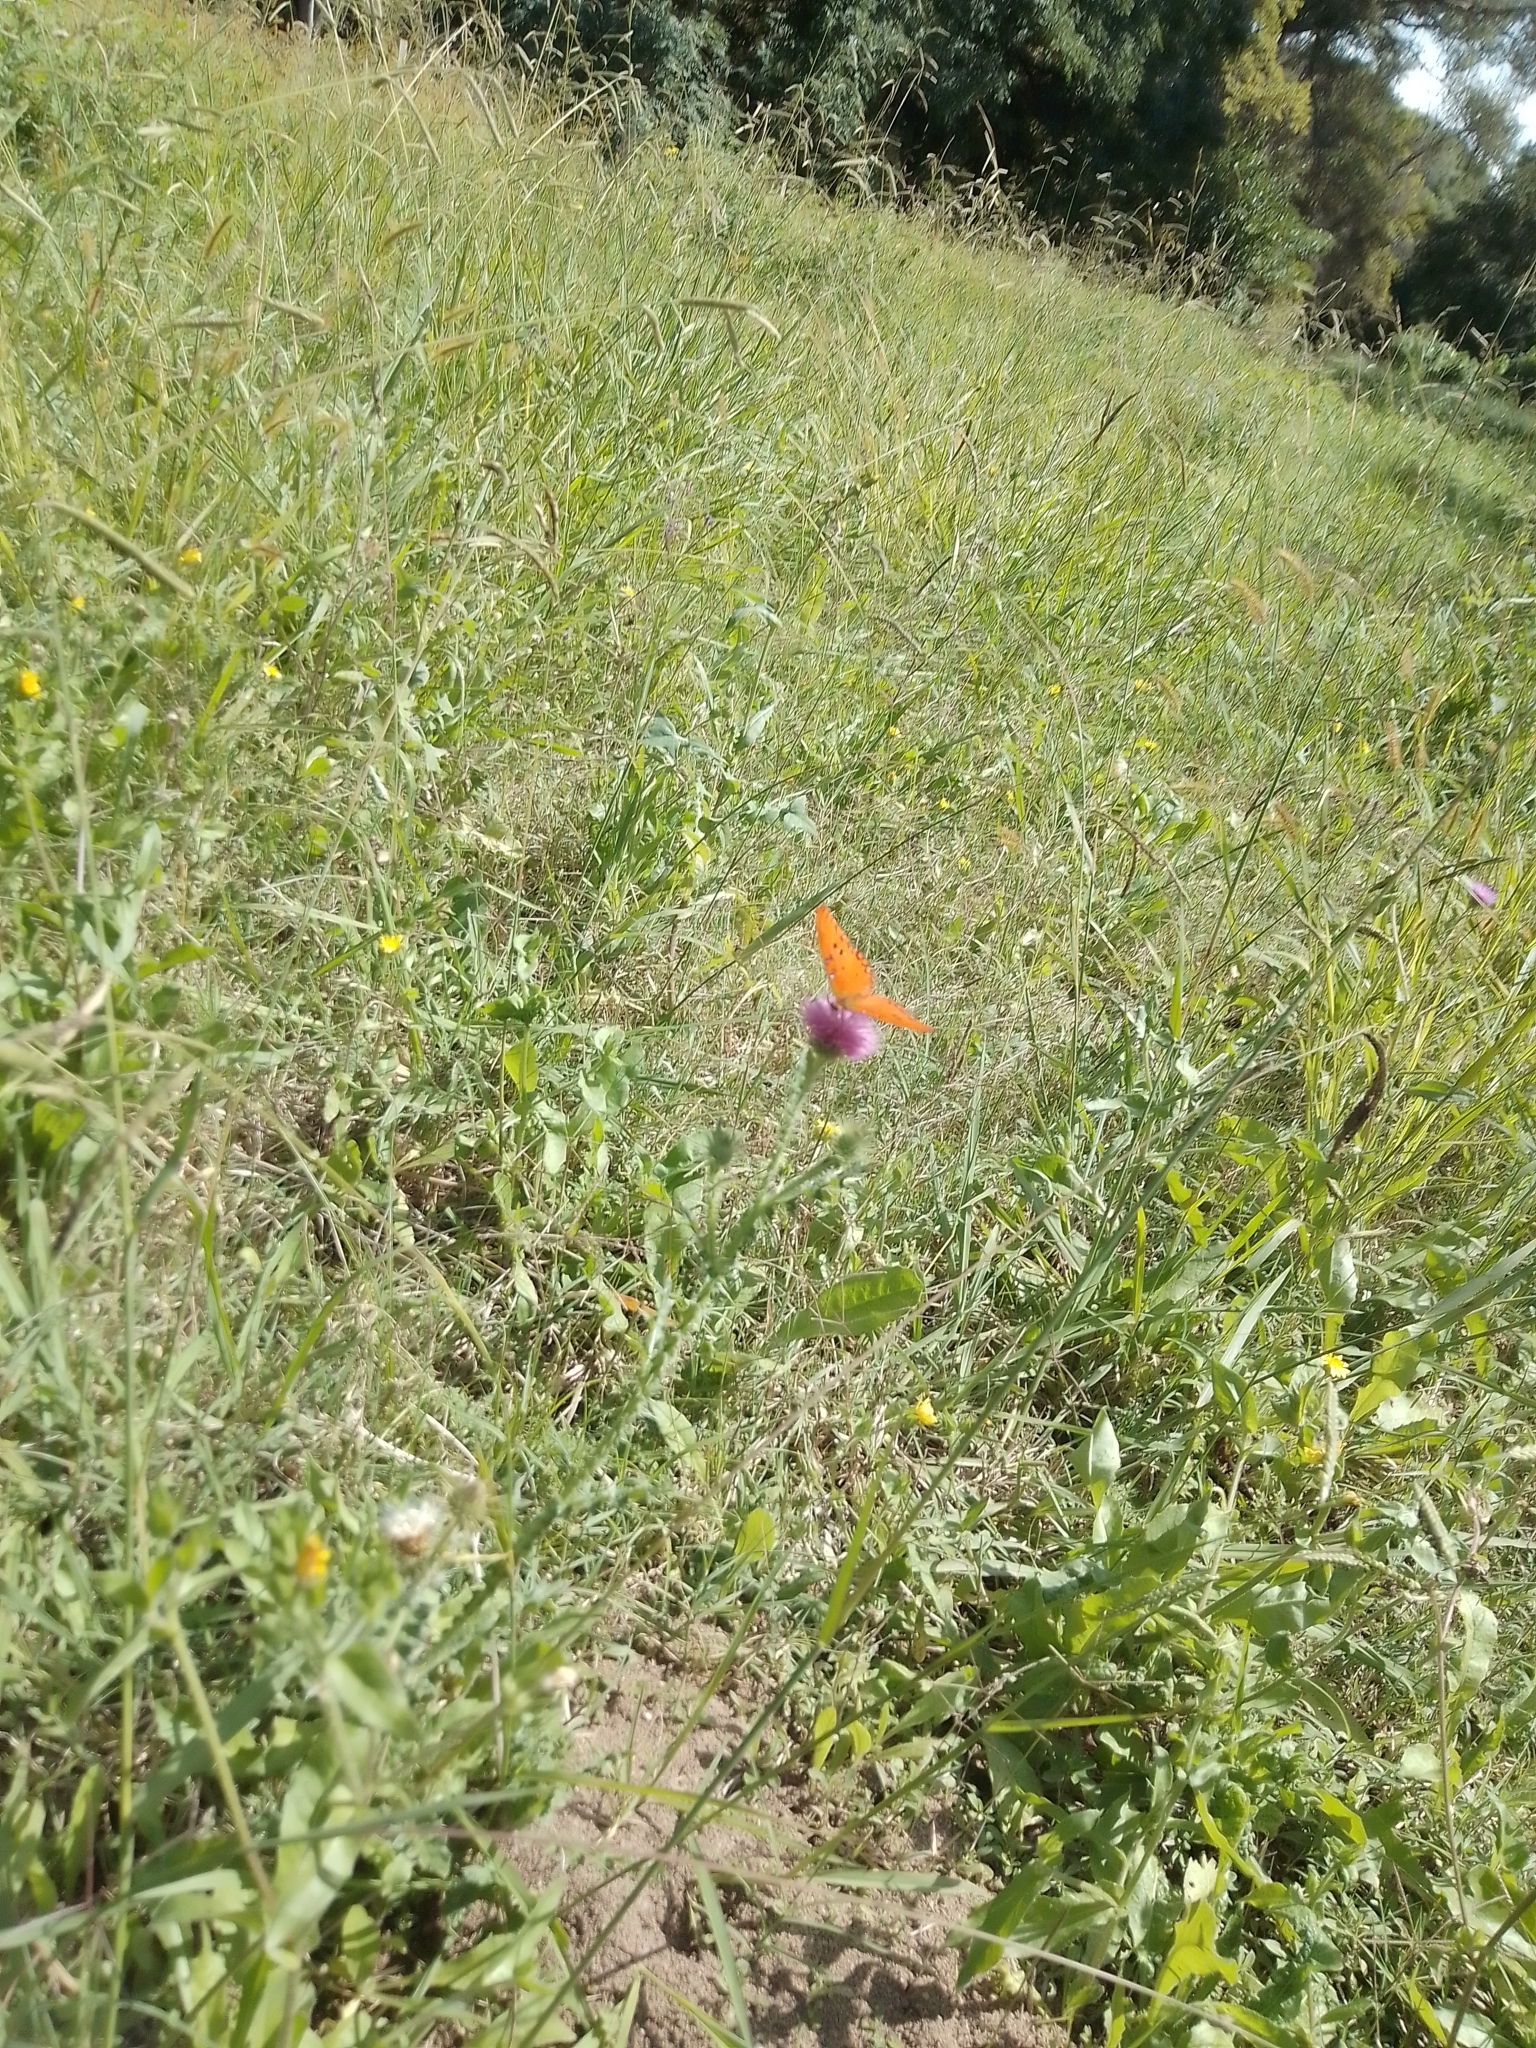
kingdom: Animalia
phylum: Arthropoda
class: Insecta
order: Lepidoptera
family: Nymphalidae
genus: Dione
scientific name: Dione vanillae
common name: Gulf fritillary
